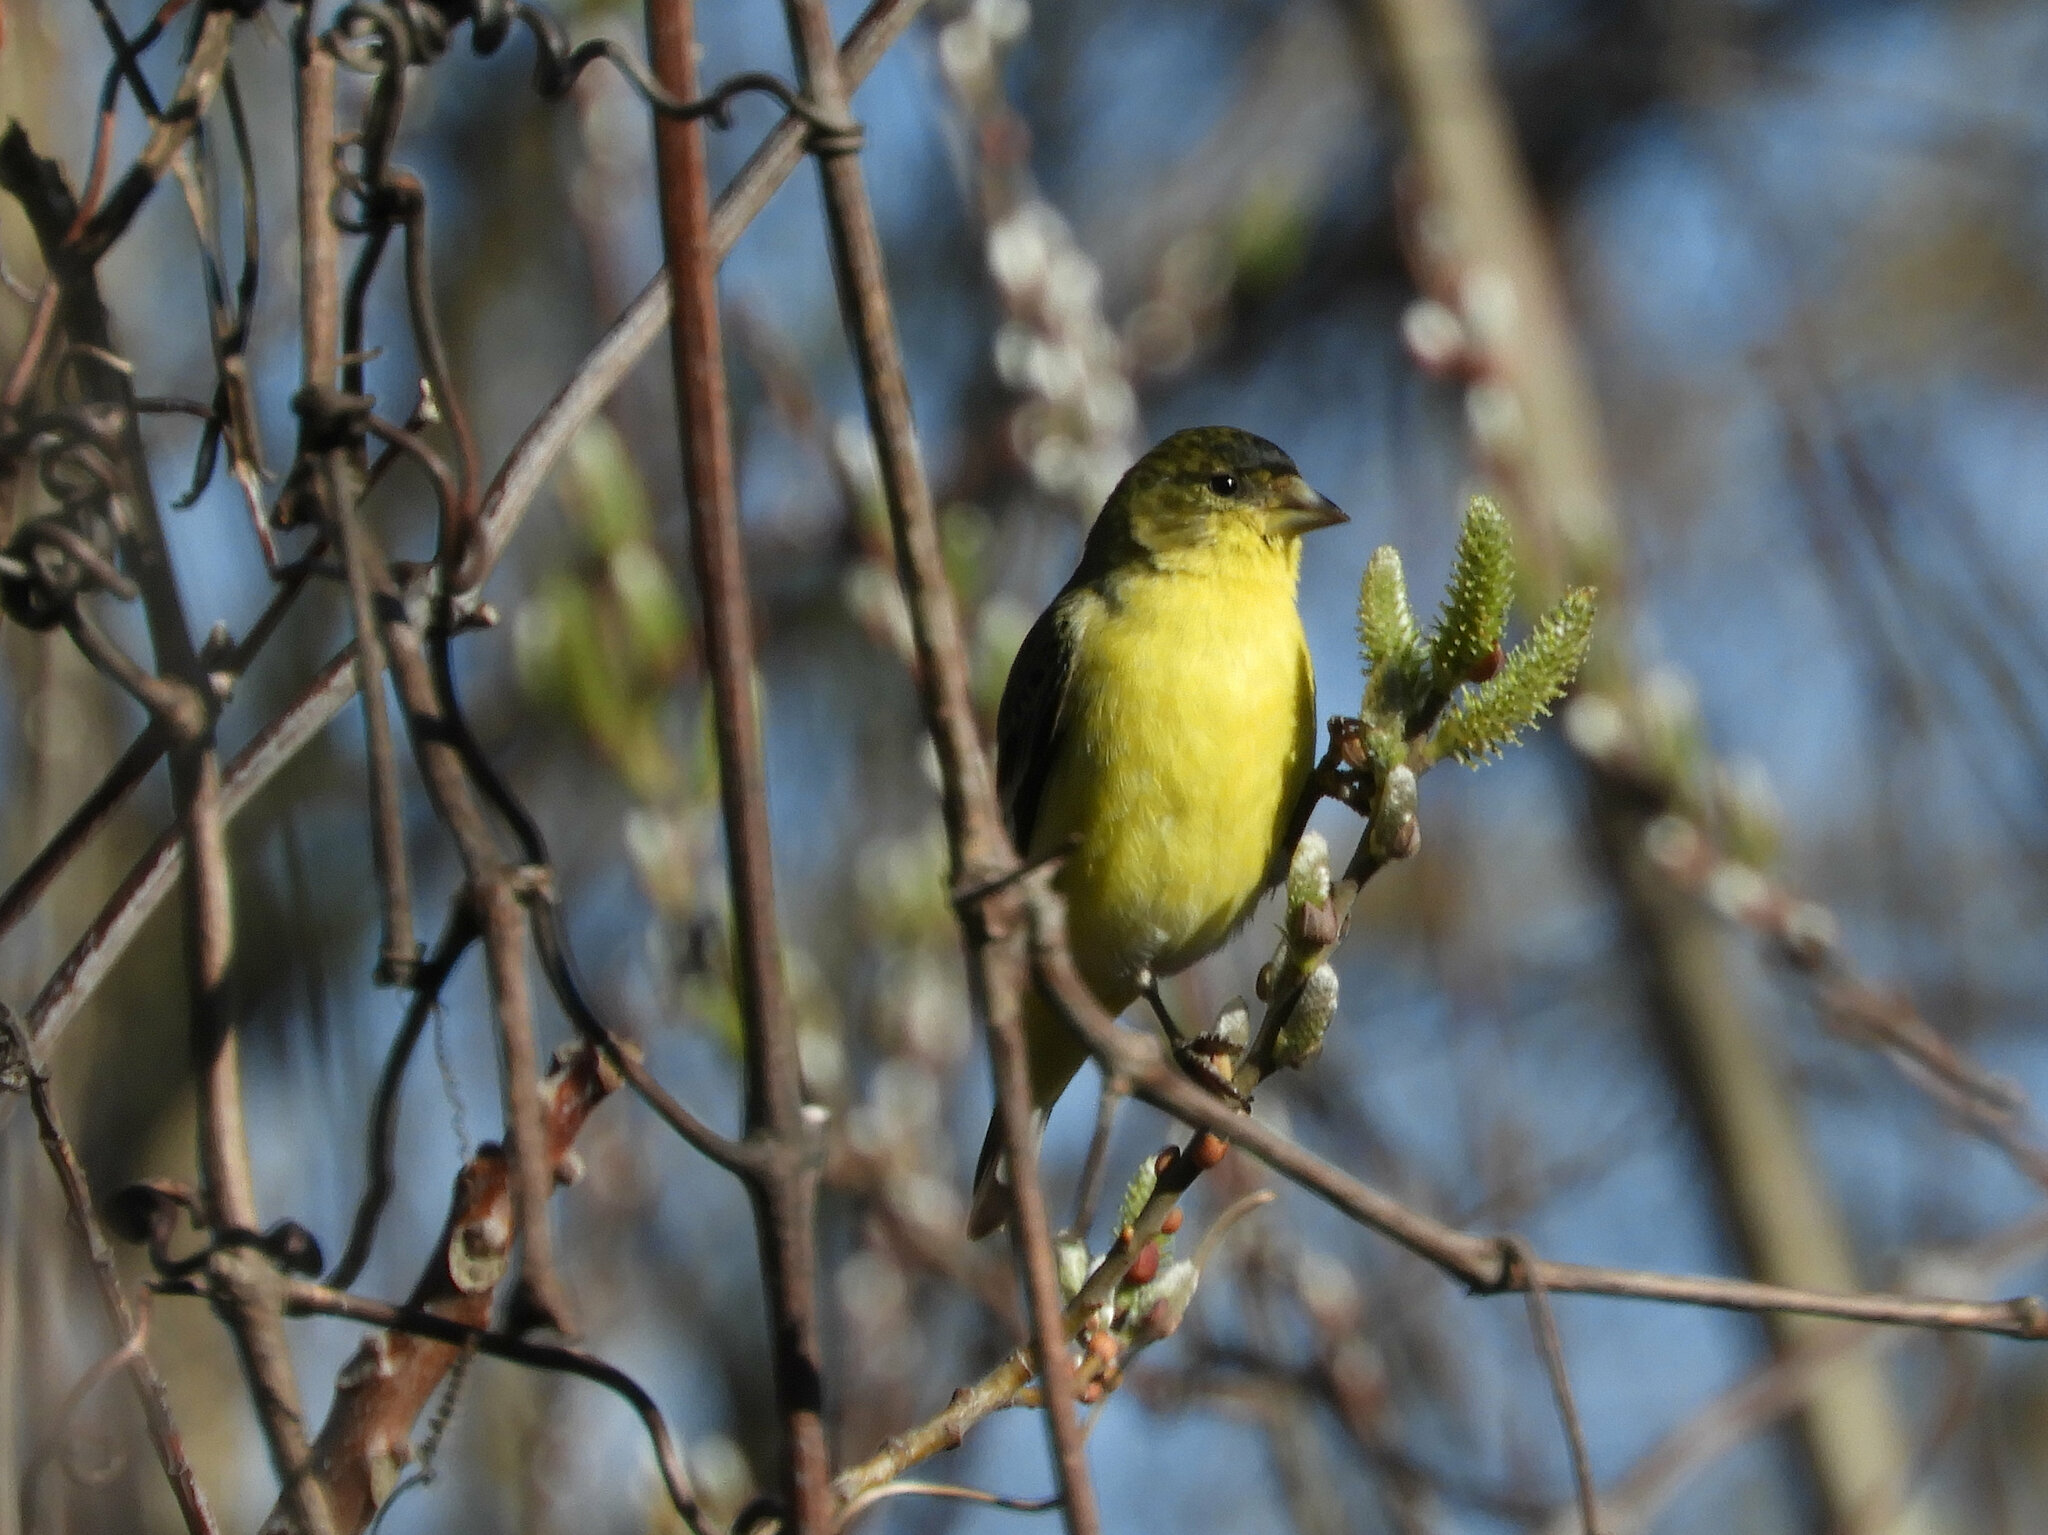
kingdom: Animalia
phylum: Chordata
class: Aves
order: Passeriformes
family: Fringillidae
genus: Spinus
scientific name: Spinus psaltria
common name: Lesser goldfinch
